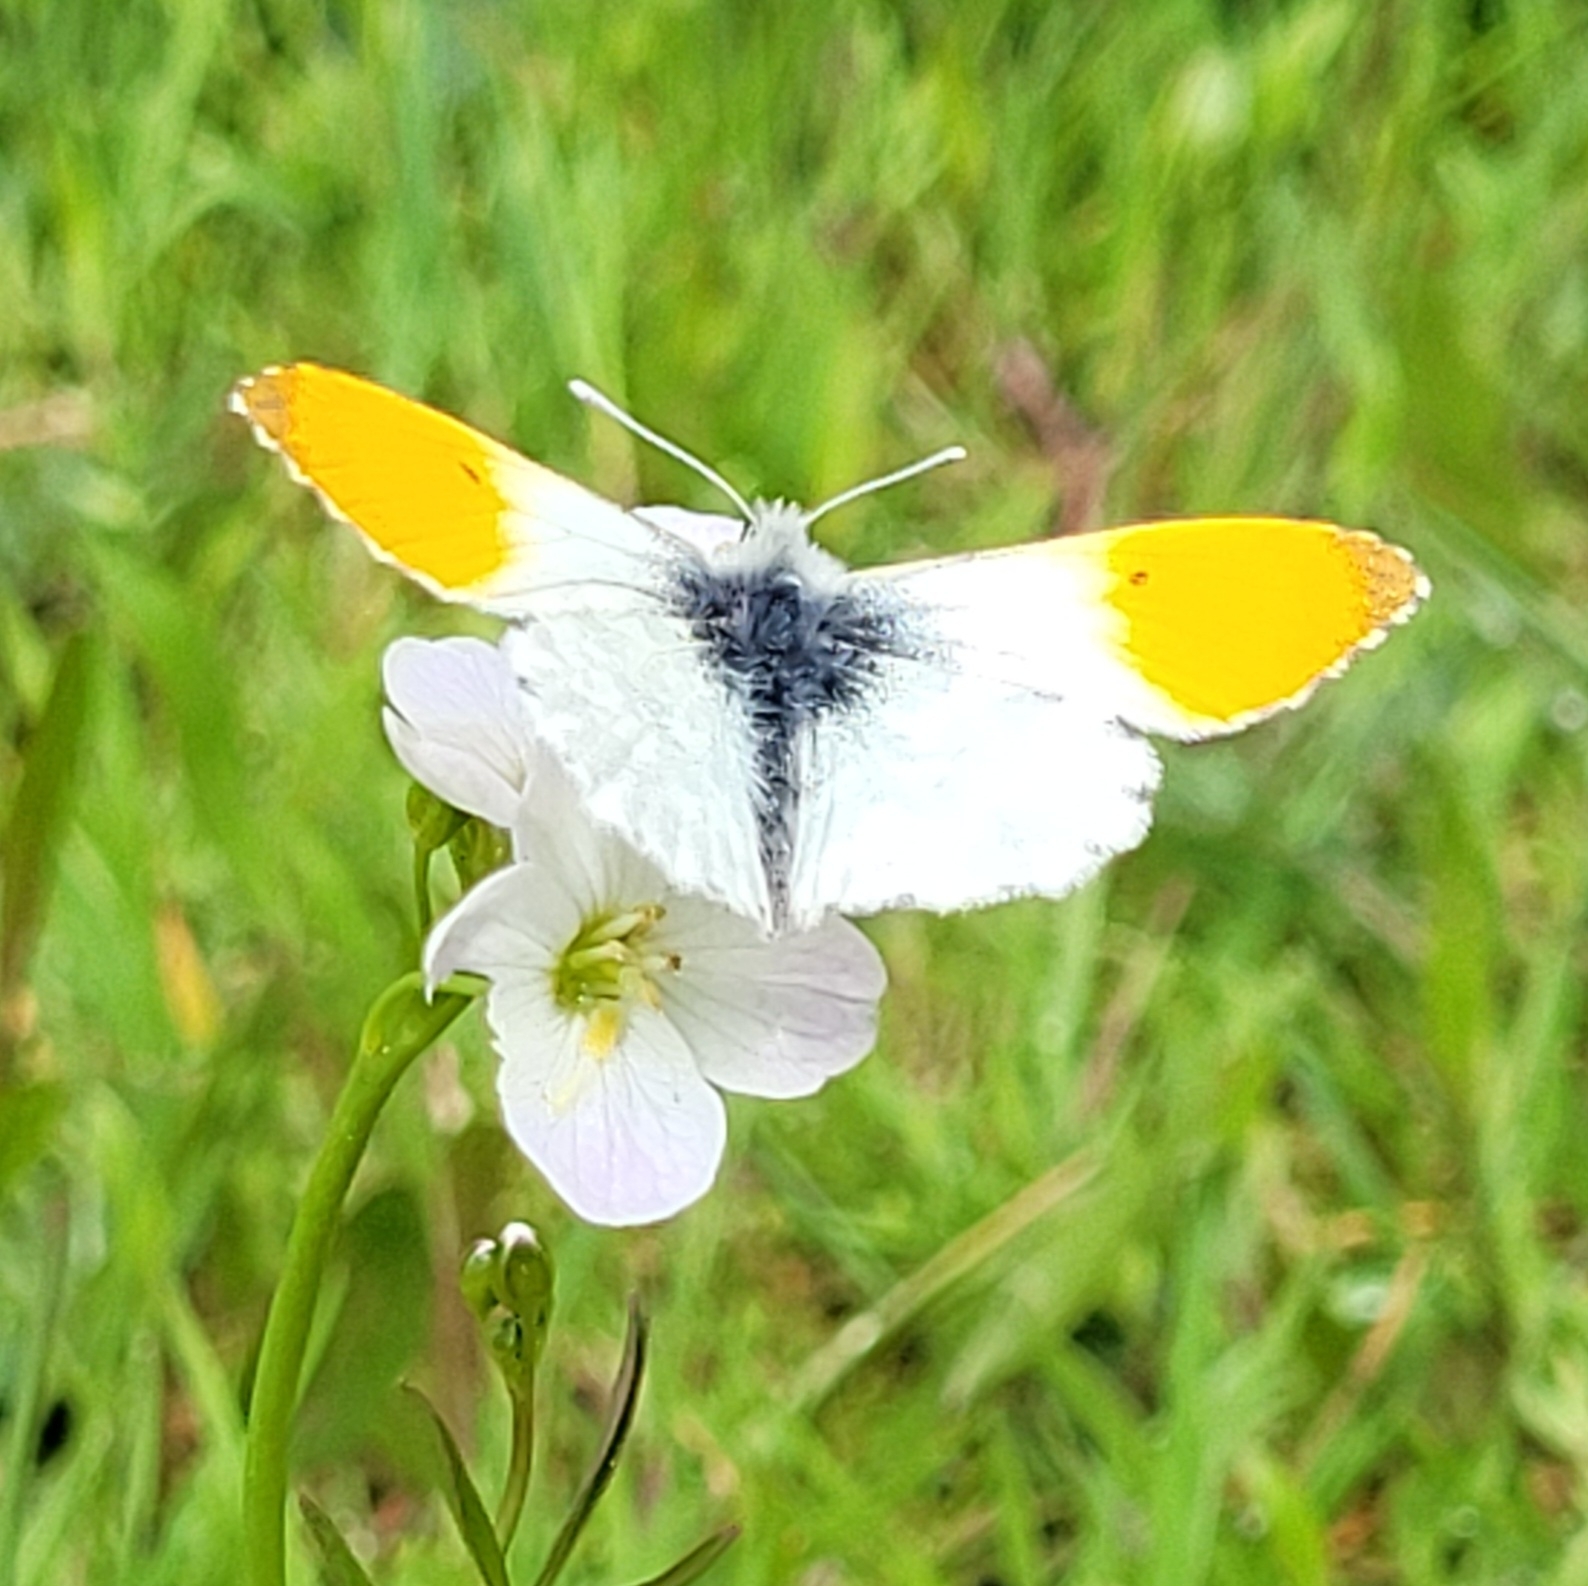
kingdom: Animalia
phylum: Arthropoda
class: Insecta
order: Lepidoptera
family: Pieridae
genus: Anthocharis
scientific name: Anthocharis cardamines
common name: Orange-tip
